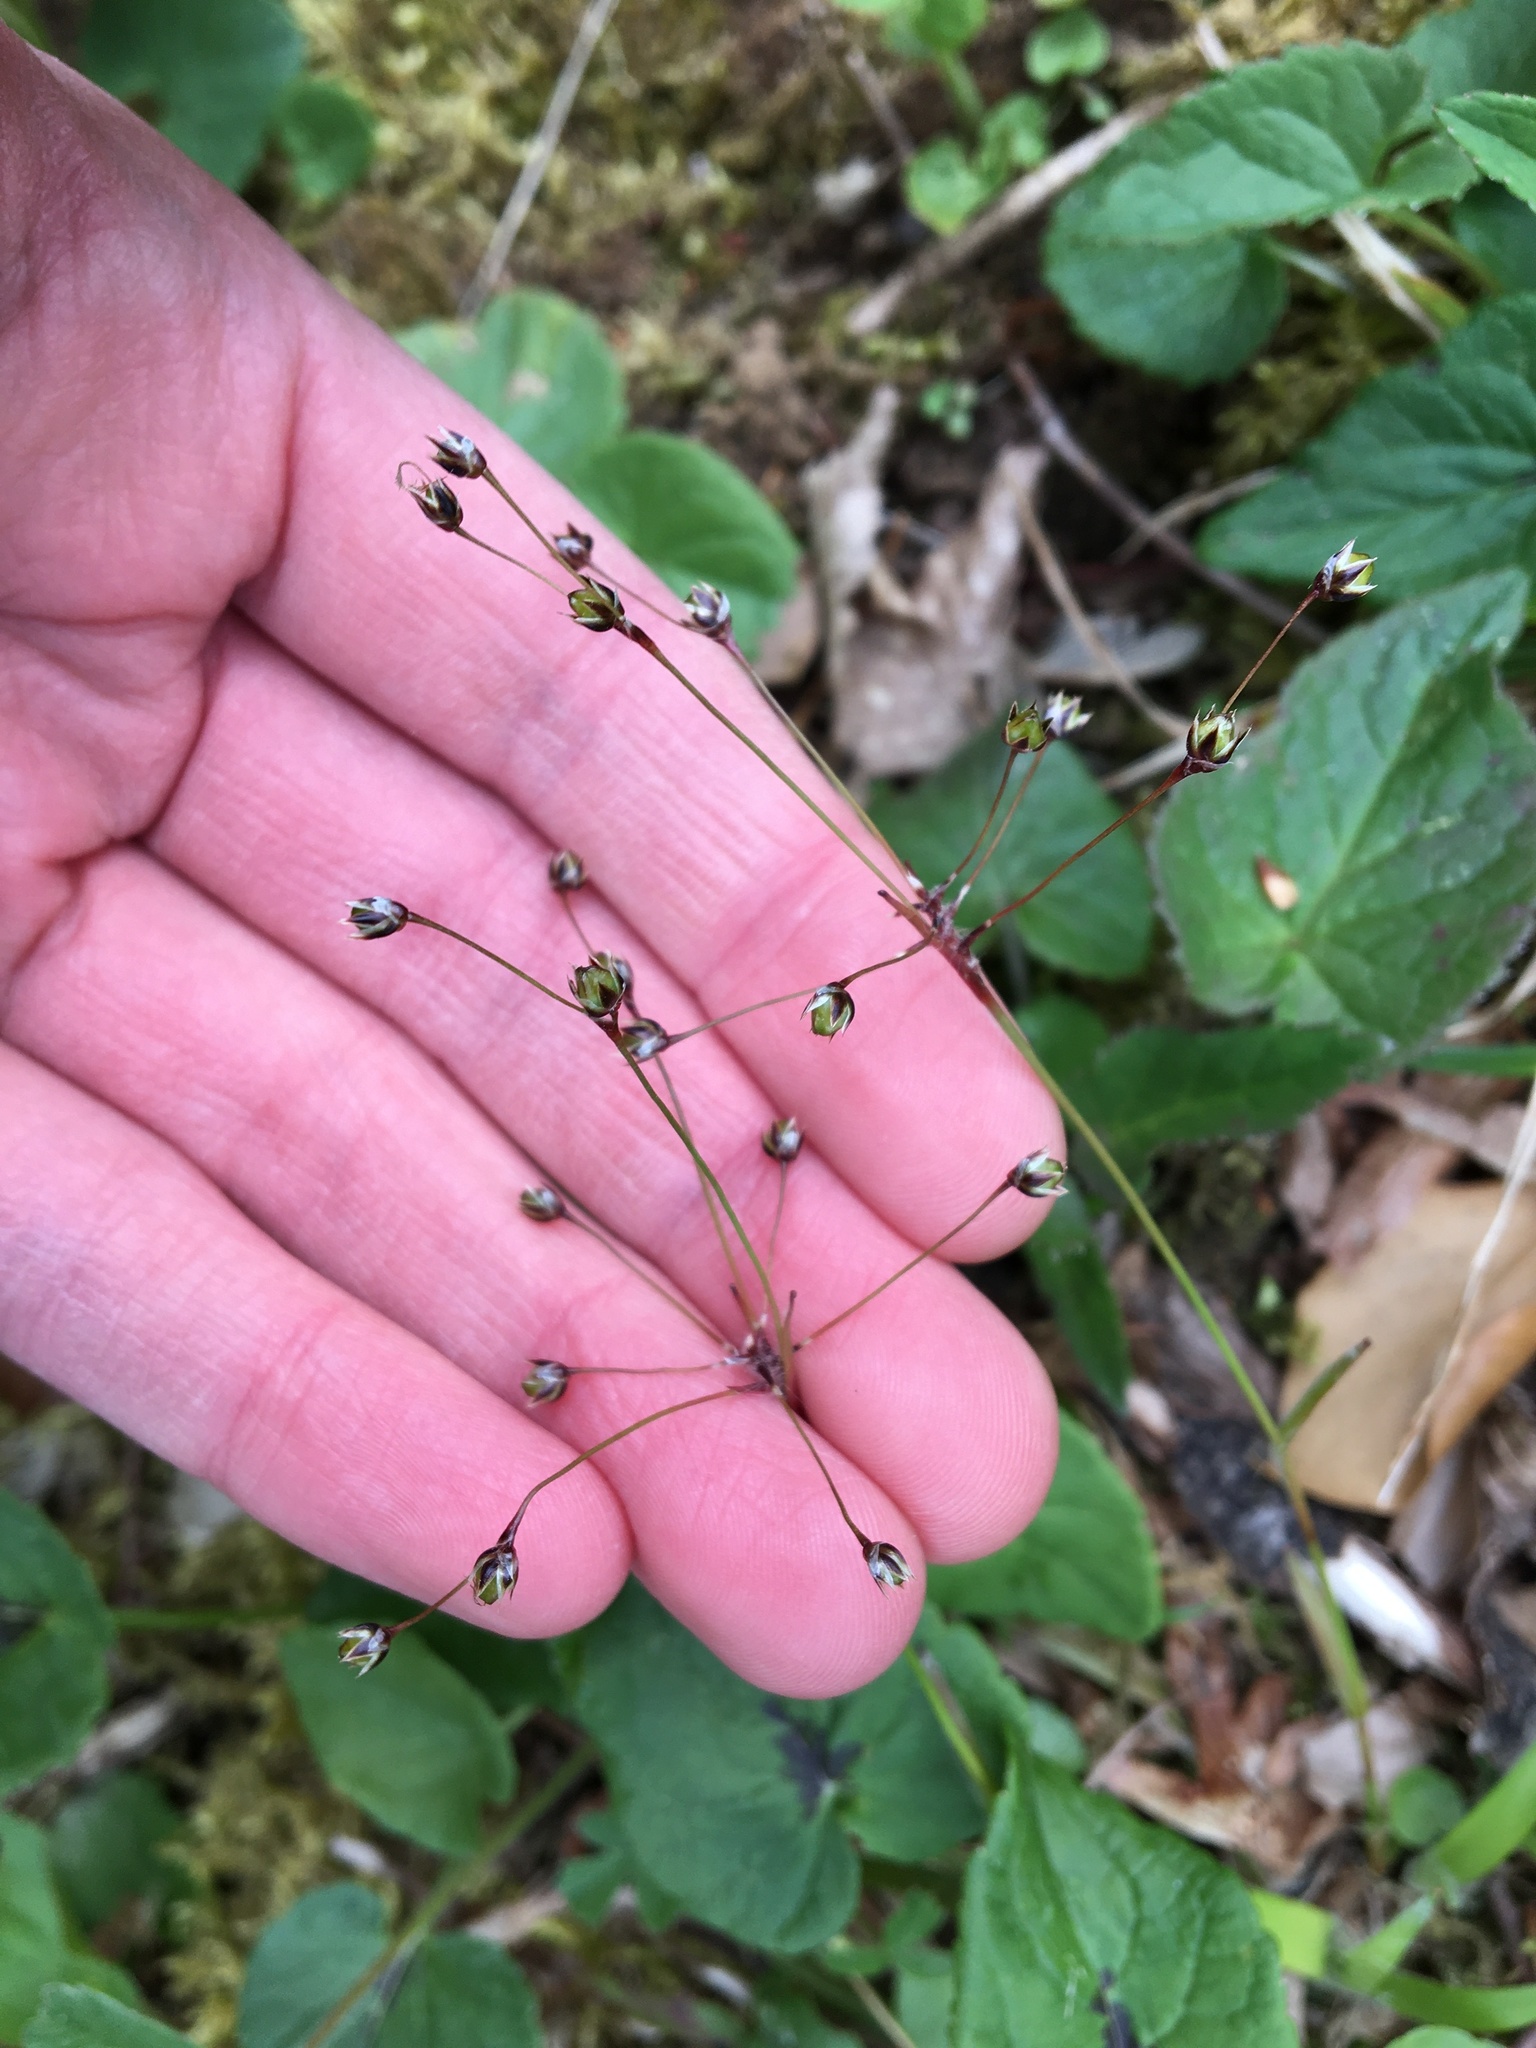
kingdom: Plantae
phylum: Tracheophyta
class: Liliopsida
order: Poales
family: Juncaceae
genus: Luzula
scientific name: Luzula pilosa
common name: Hairy wood-rush
